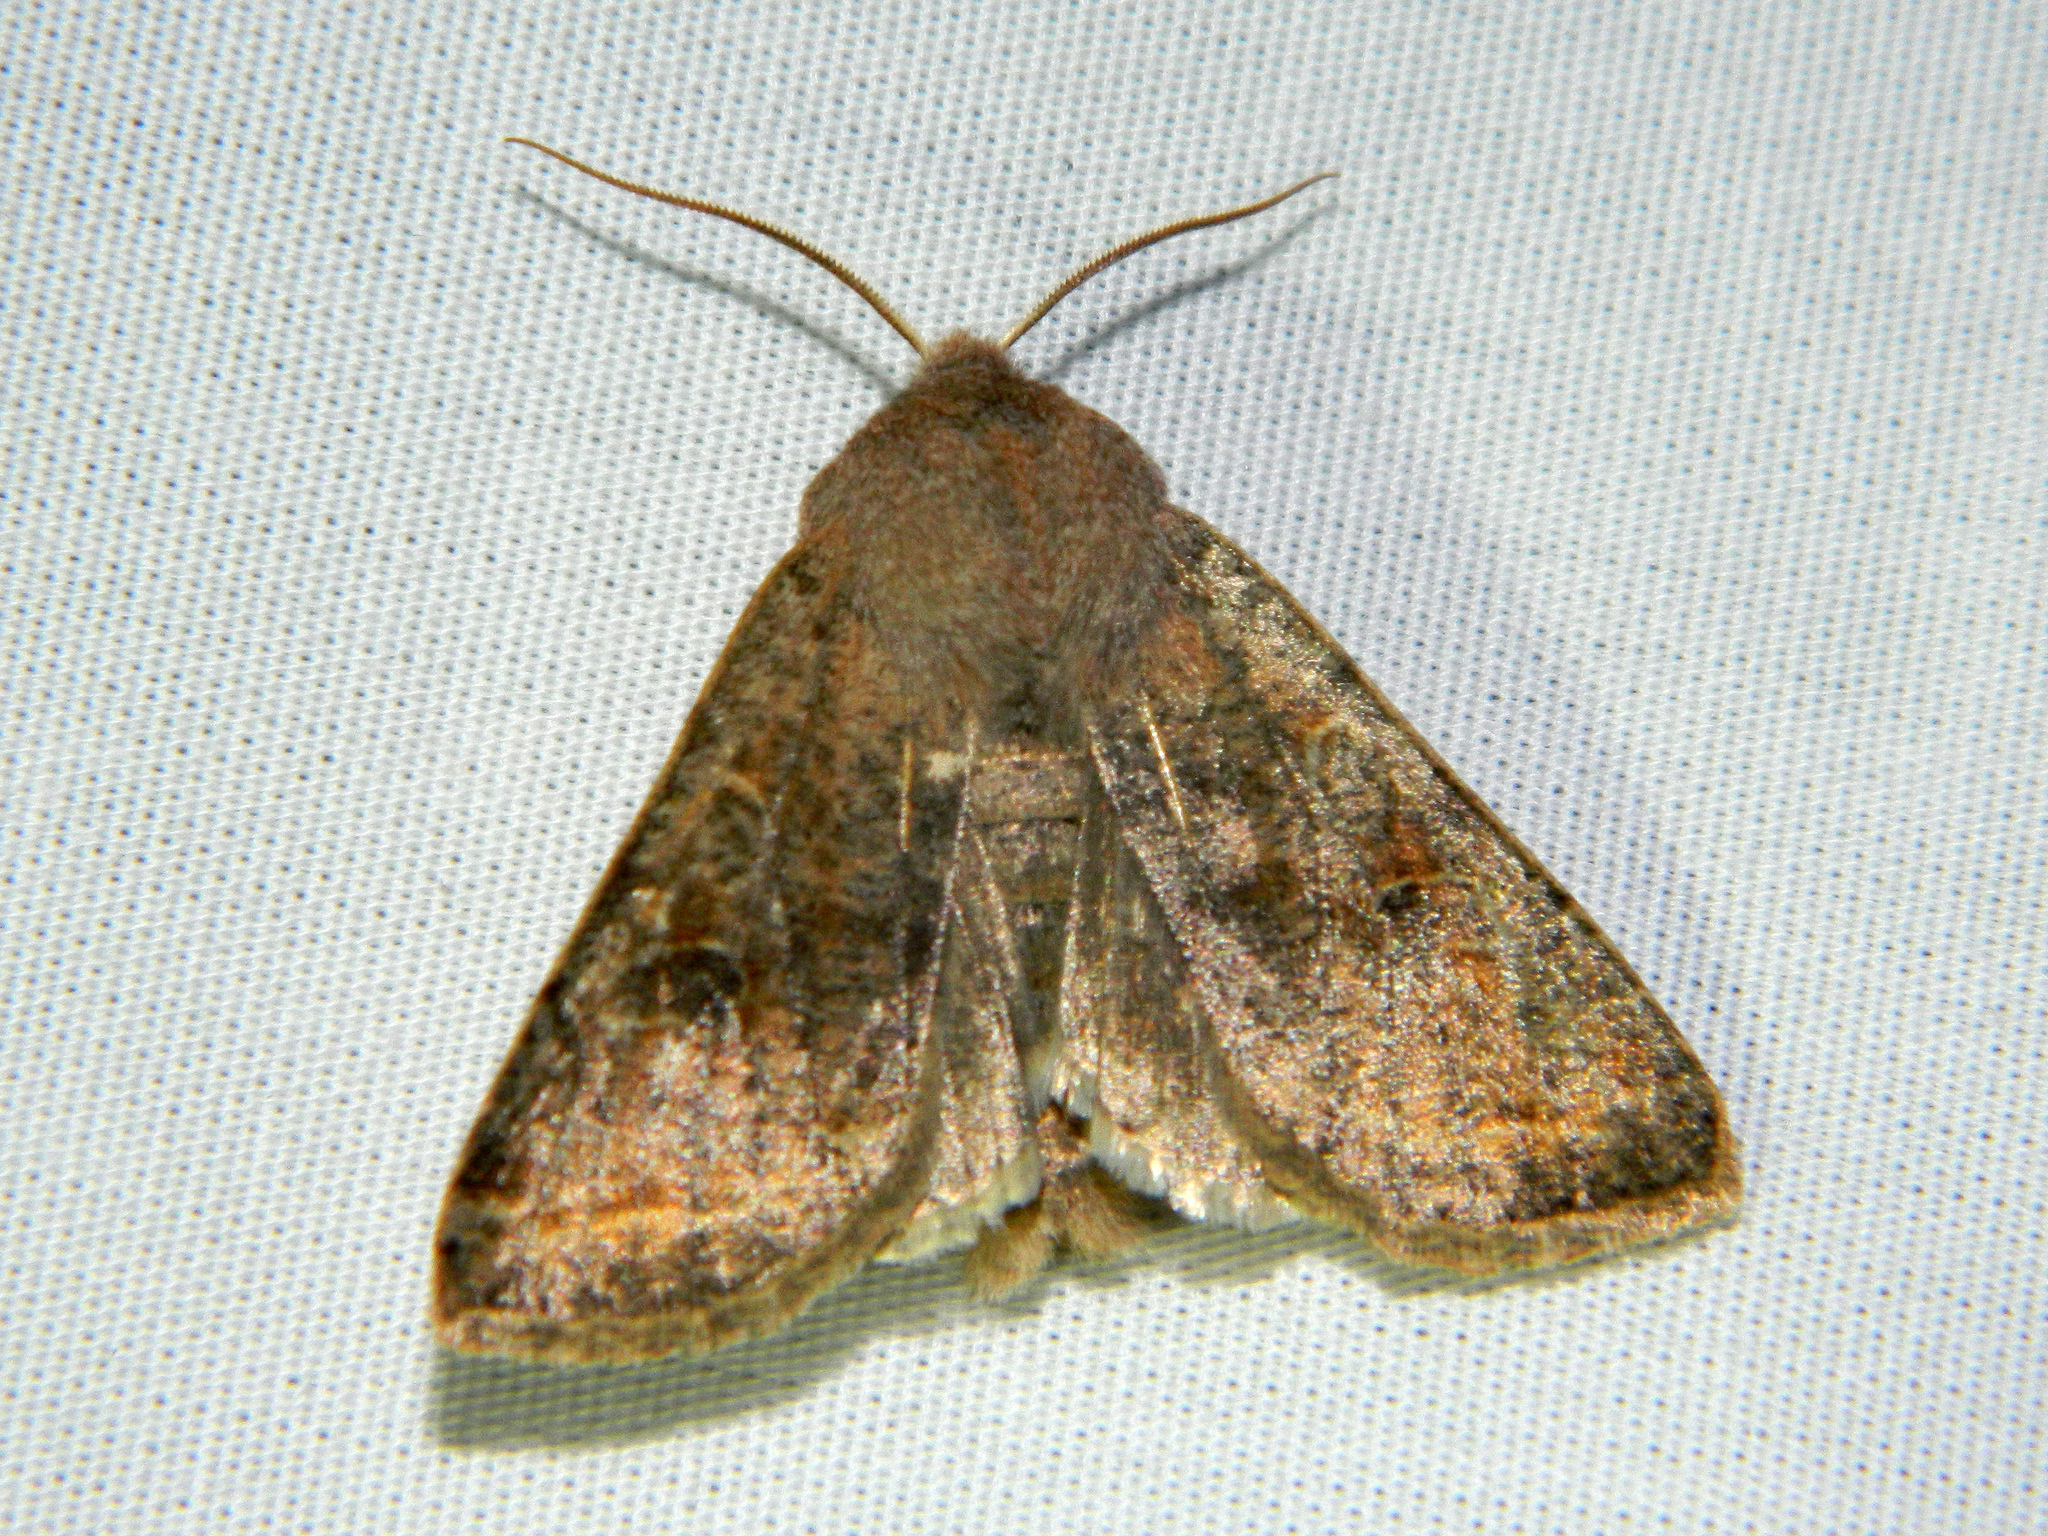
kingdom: Animalia
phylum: Arthropoda
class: Insecta
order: Lepidoptera
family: Noctuidae
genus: Orthosia
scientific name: Orthosia hibisci
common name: Green fruitworm
